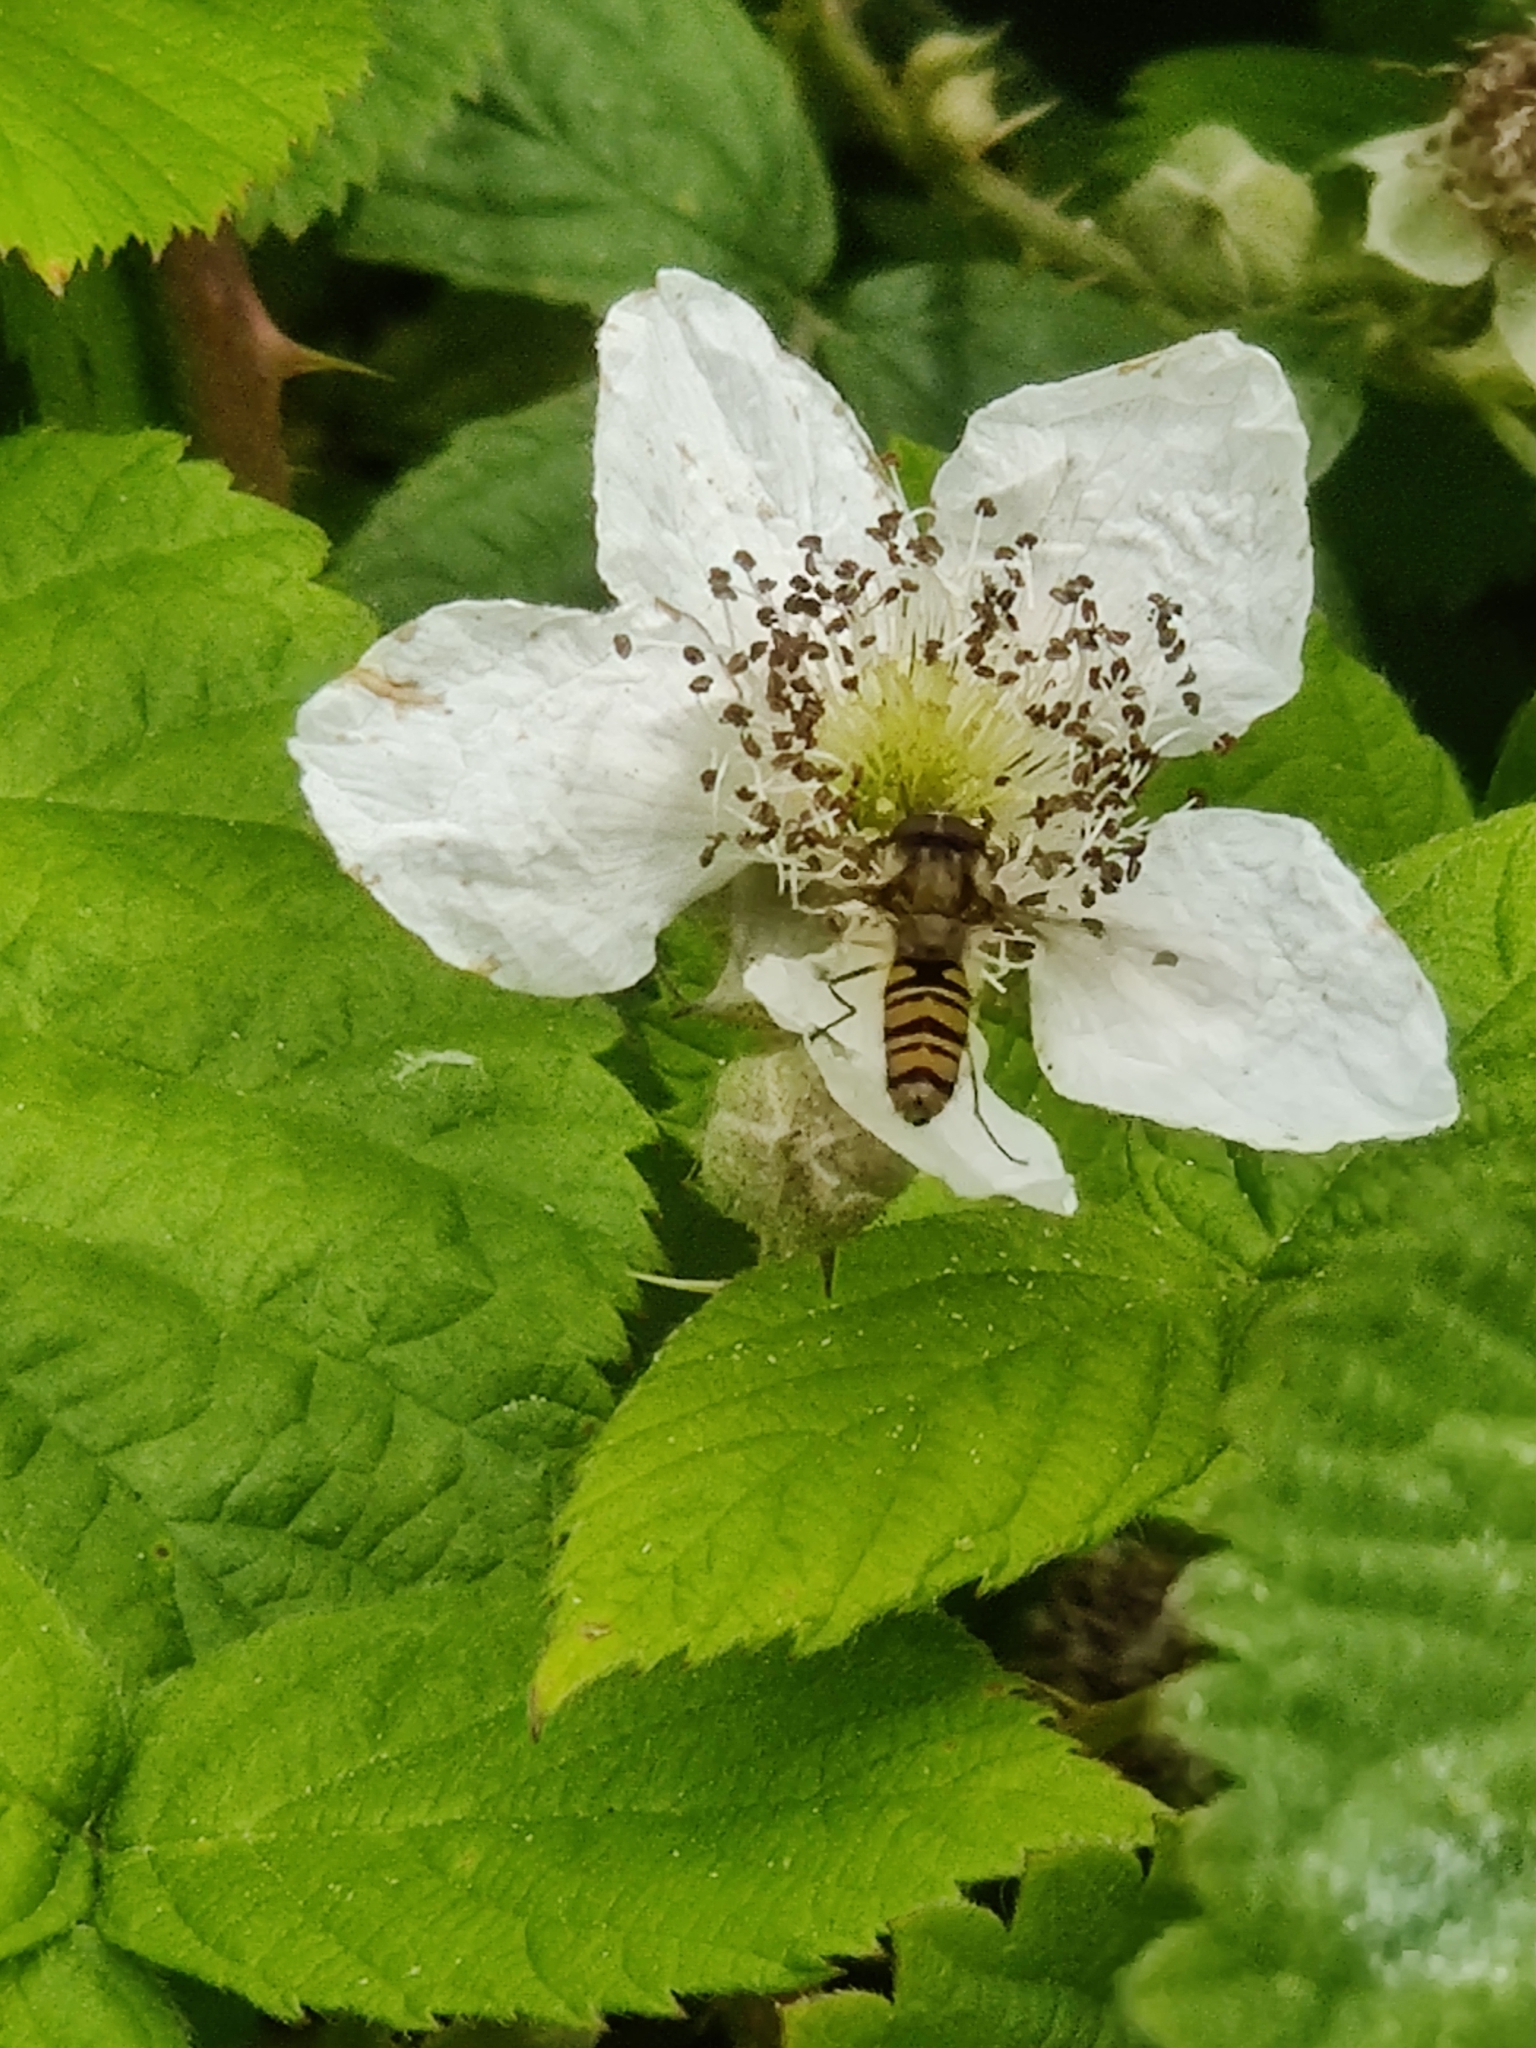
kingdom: Animalia
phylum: Arthropoda
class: Insecta
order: Diptera
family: Syrphidae
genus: Episyrphus
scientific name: Episyrphus balteatus
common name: Marmalade hoverfly
